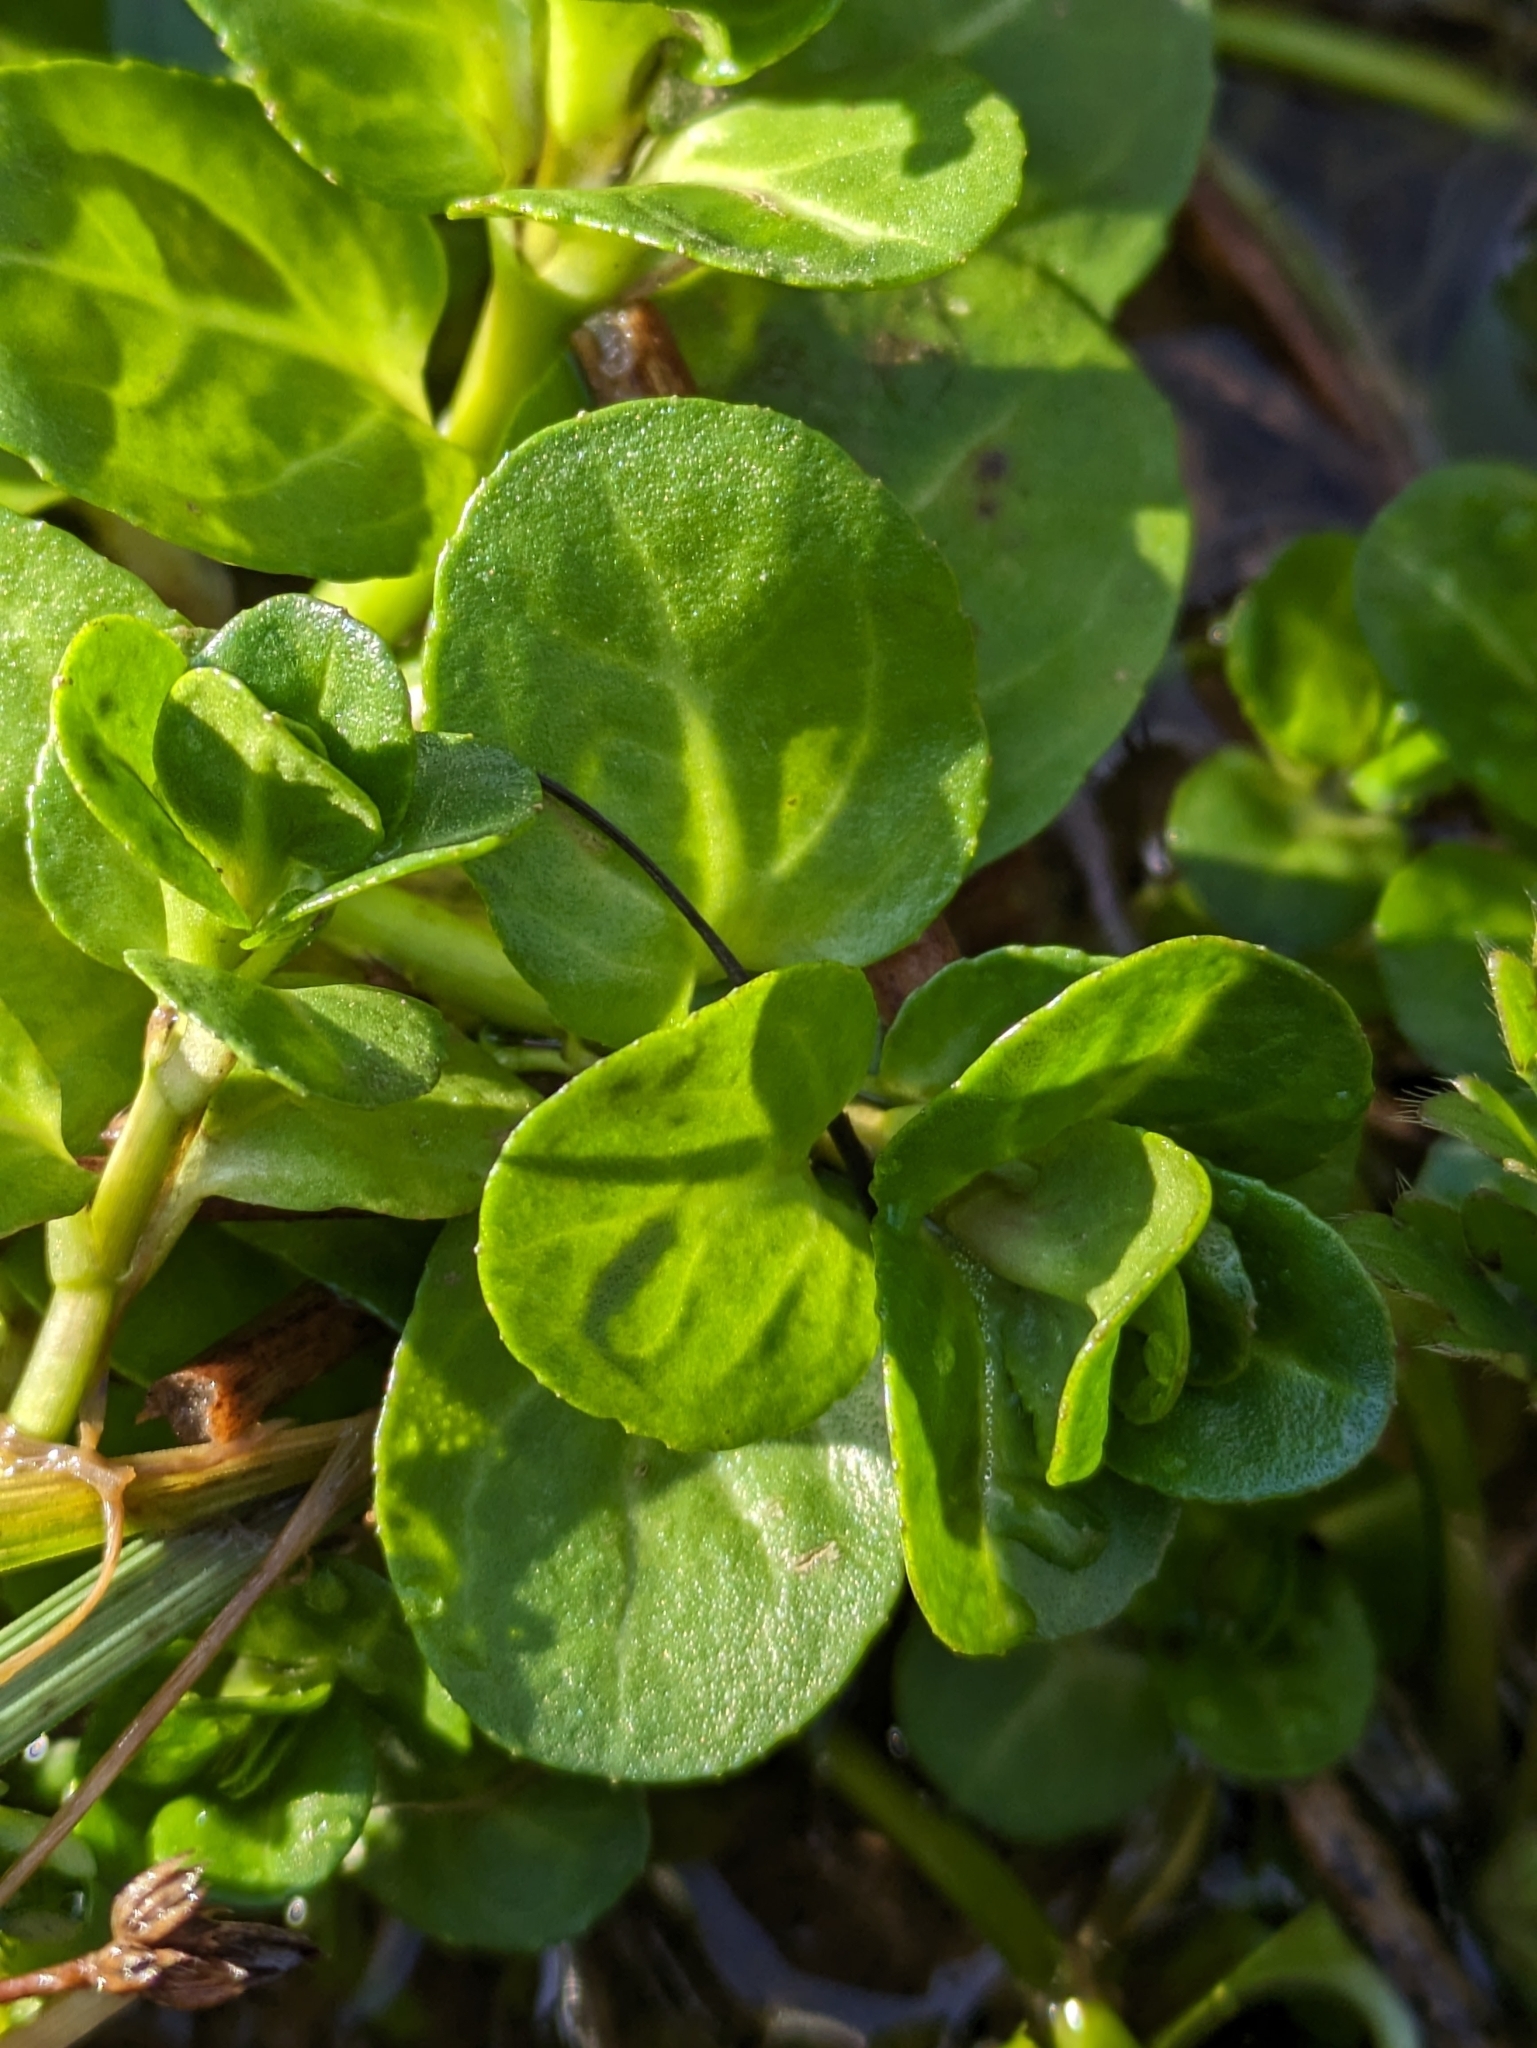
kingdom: Plantae
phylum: Tracheophyta
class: Magnoliopsida
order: Lamiales
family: Plantaginaceae
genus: Veronica
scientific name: Veronica beccabunga
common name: Brooklime
